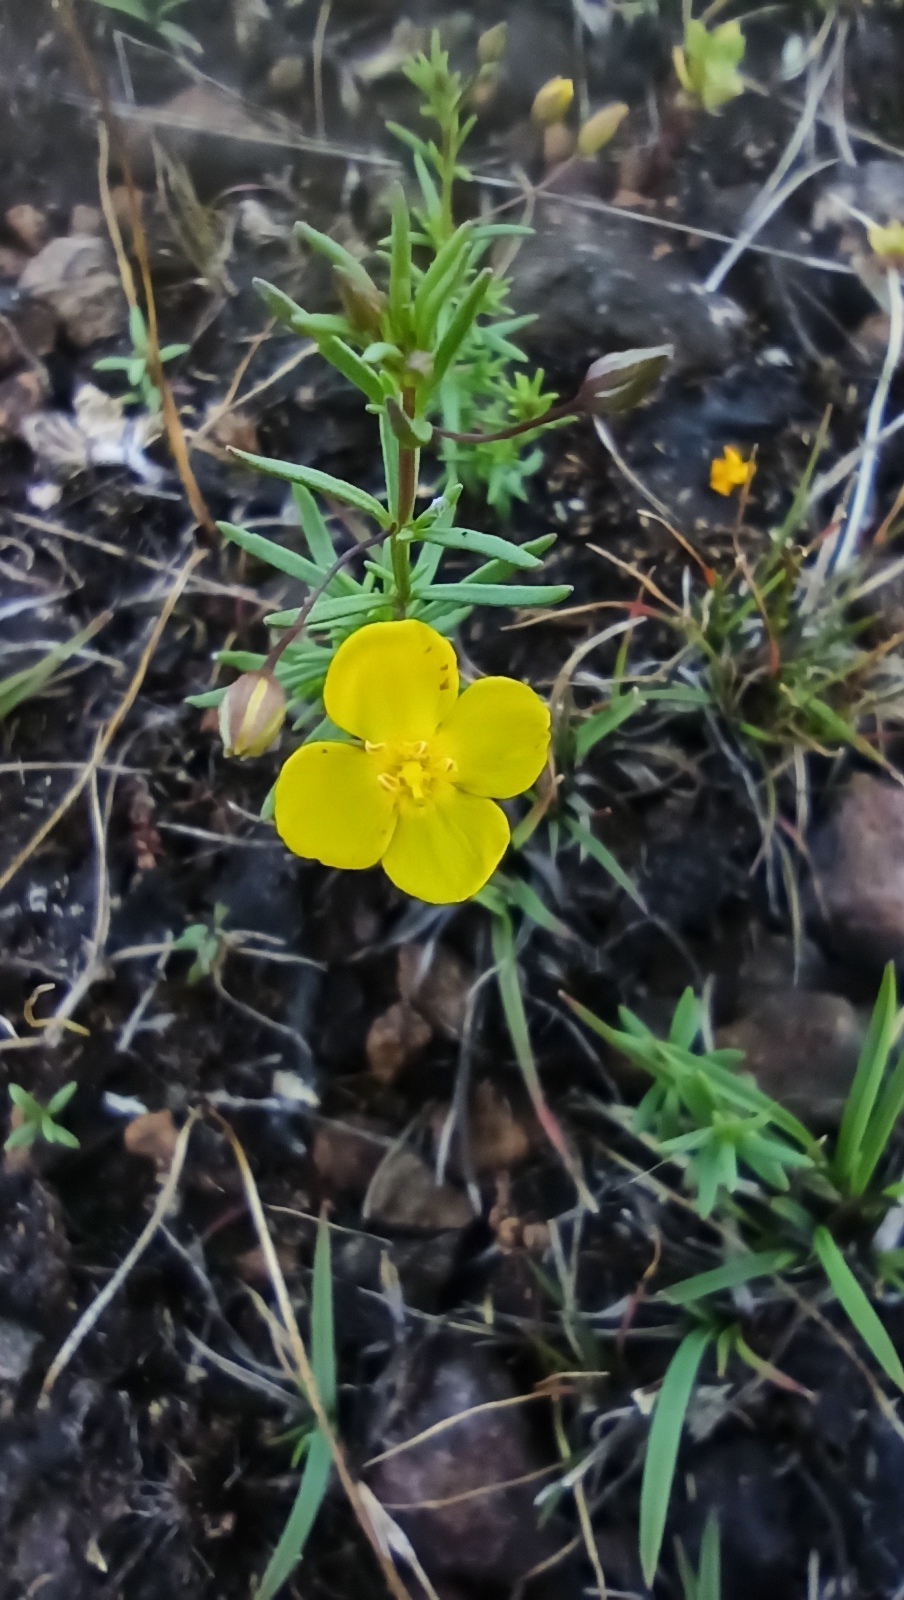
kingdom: Plantae
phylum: Tracheophyta
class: Magnoliopsida
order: Lamiales
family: Plantaginaceae
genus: Scoparia
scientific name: Scoparia montevidensis
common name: Broomwort
